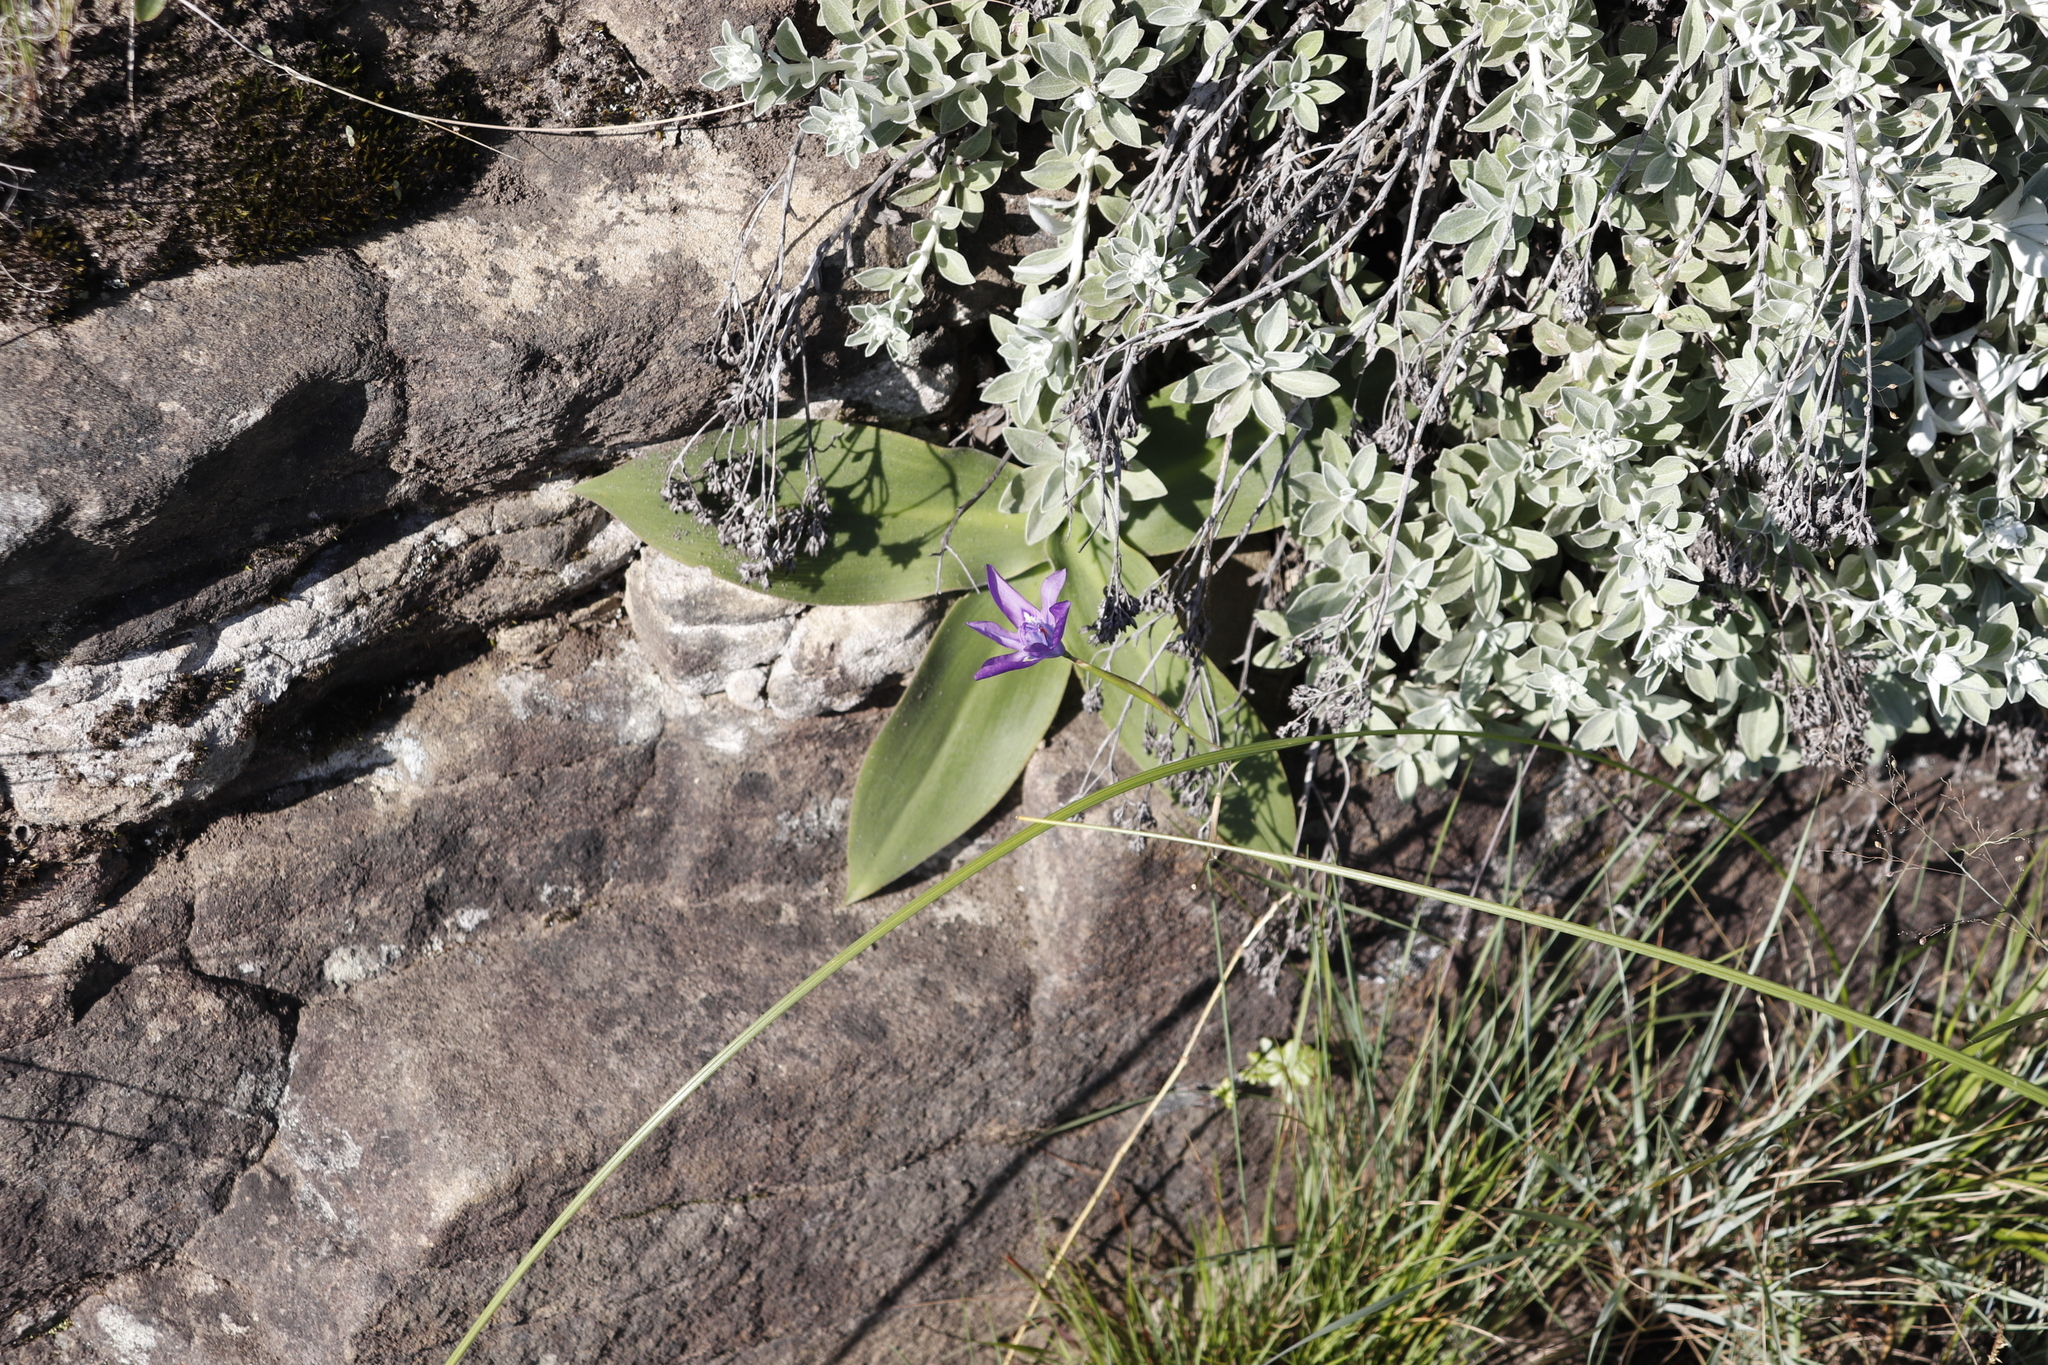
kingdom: Plantae
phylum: Tracheophyta
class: Liliopsida
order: Asparagales
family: Iridaceae
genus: Moraea
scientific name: Moraea inclinata
